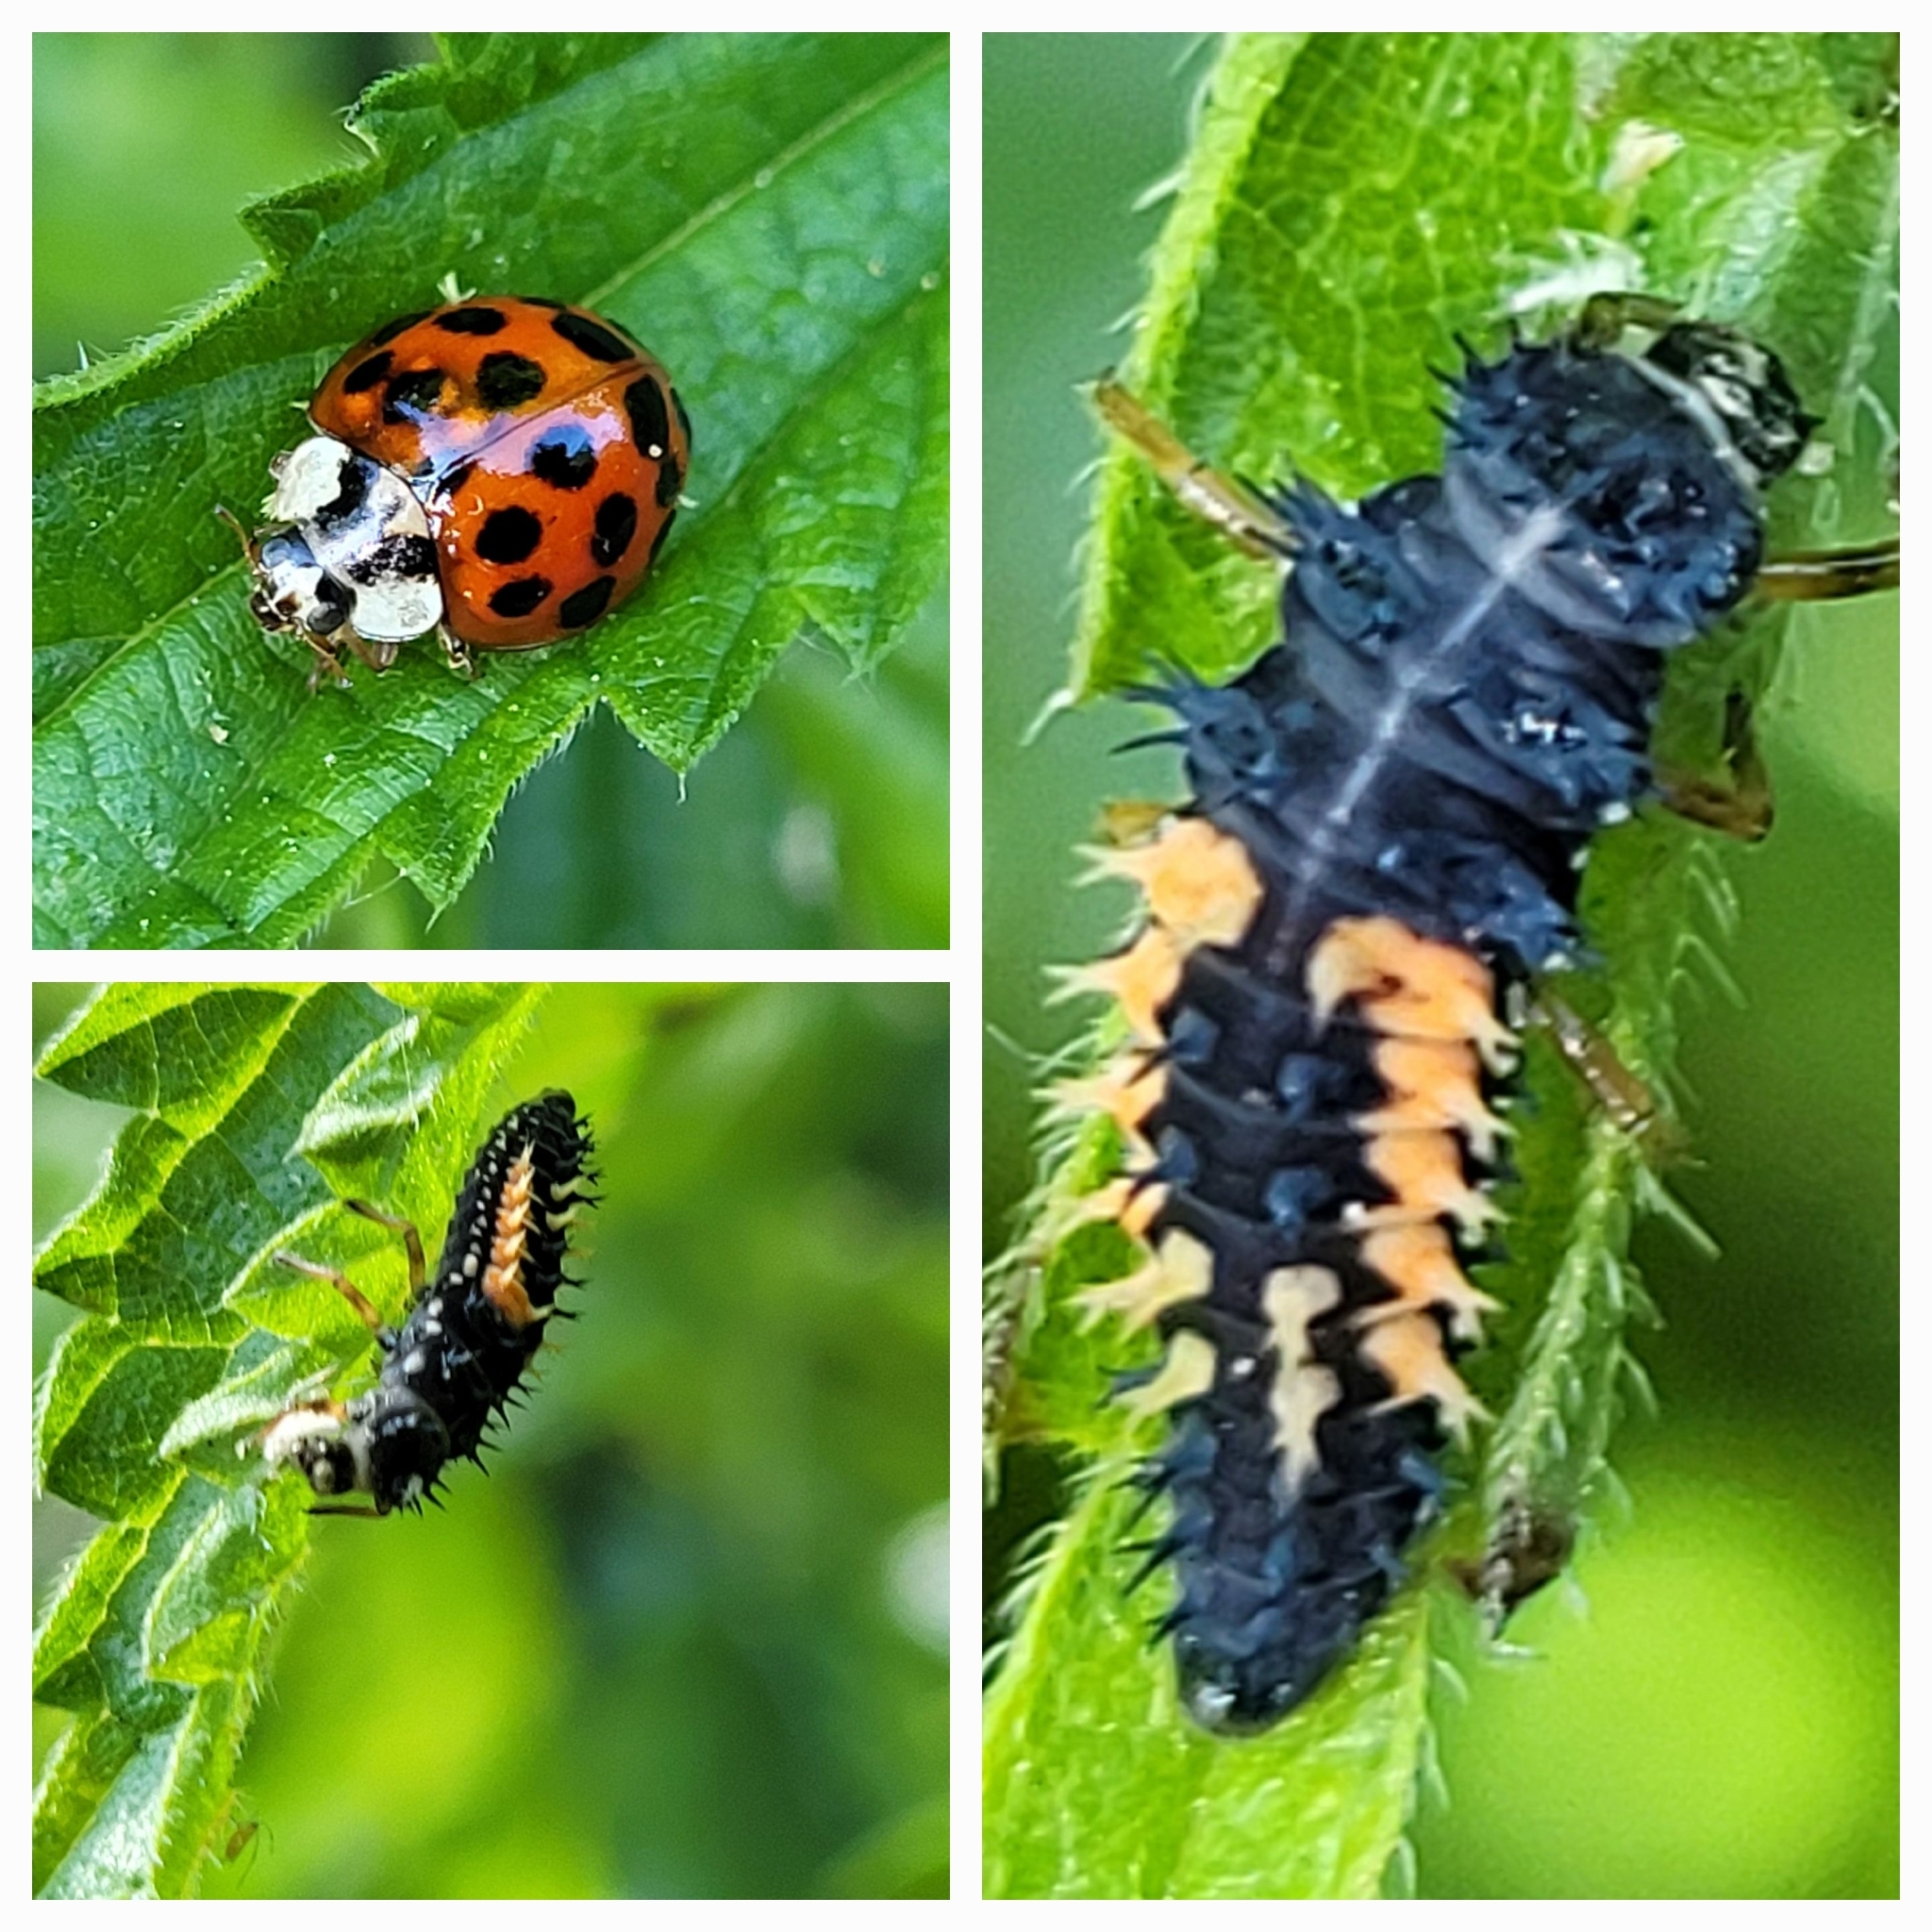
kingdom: Animalia
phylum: Arthropoda
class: Insecta
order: Coleoptera
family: Coccinellidae
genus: Harmonia
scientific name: Harmonia axyridis
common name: Harlequin ladybird
